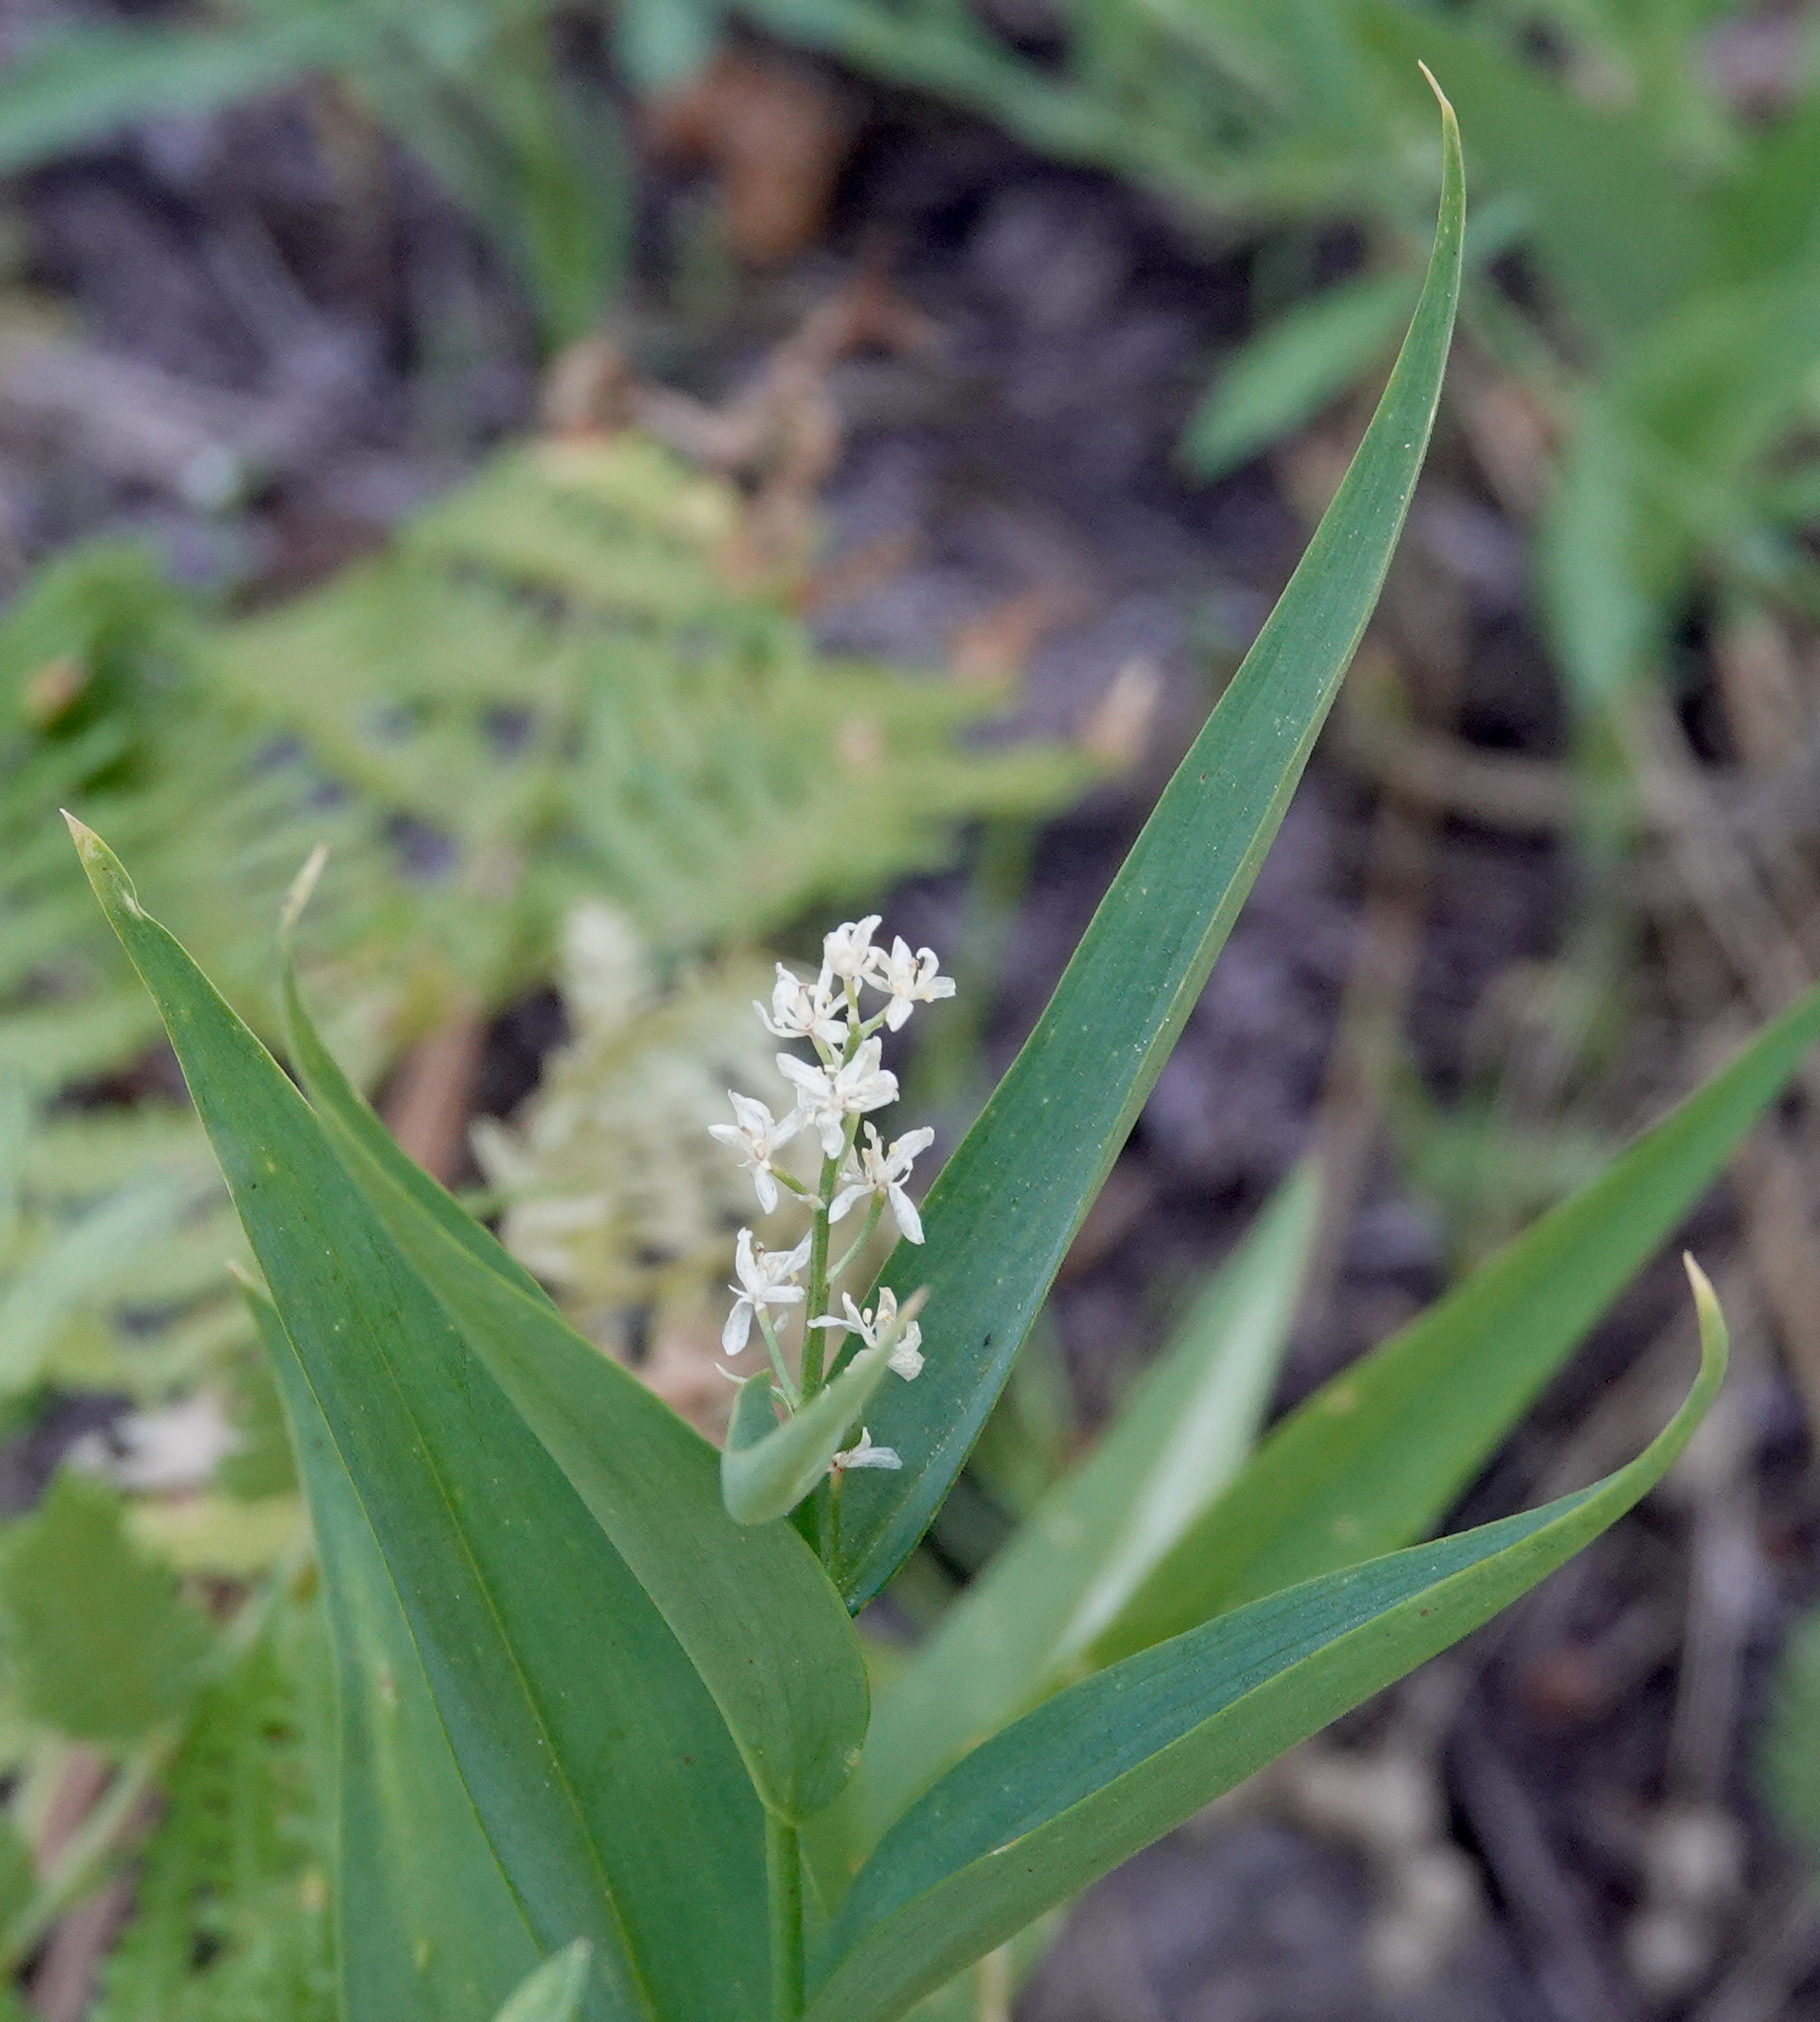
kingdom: Plantae
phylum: Tracheophyta
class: Liliopsida
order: Asparagales
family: Asparagaceae
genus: Maianthemum
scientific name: Maianthemum stellatum
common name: Little false solomon's seal
